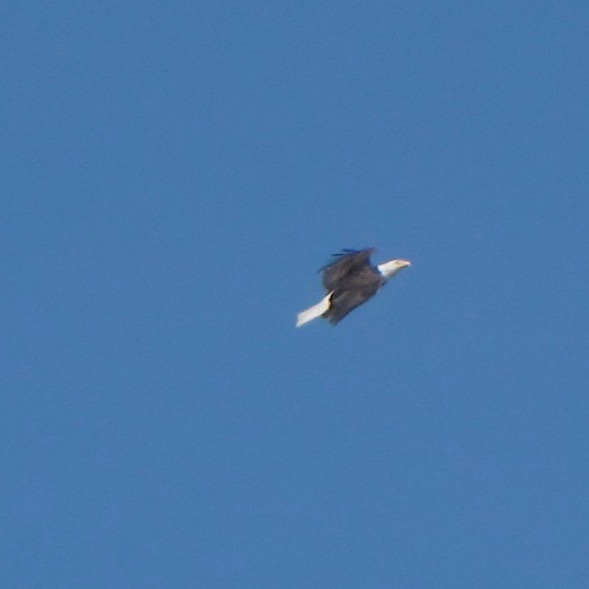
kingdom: Animalia
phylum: Chordata
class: Aves
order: Accipitriformes
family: Accipitridae
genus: Haliaeetus
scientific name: Haliaeetus leucocephalus
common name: Bald eagle
